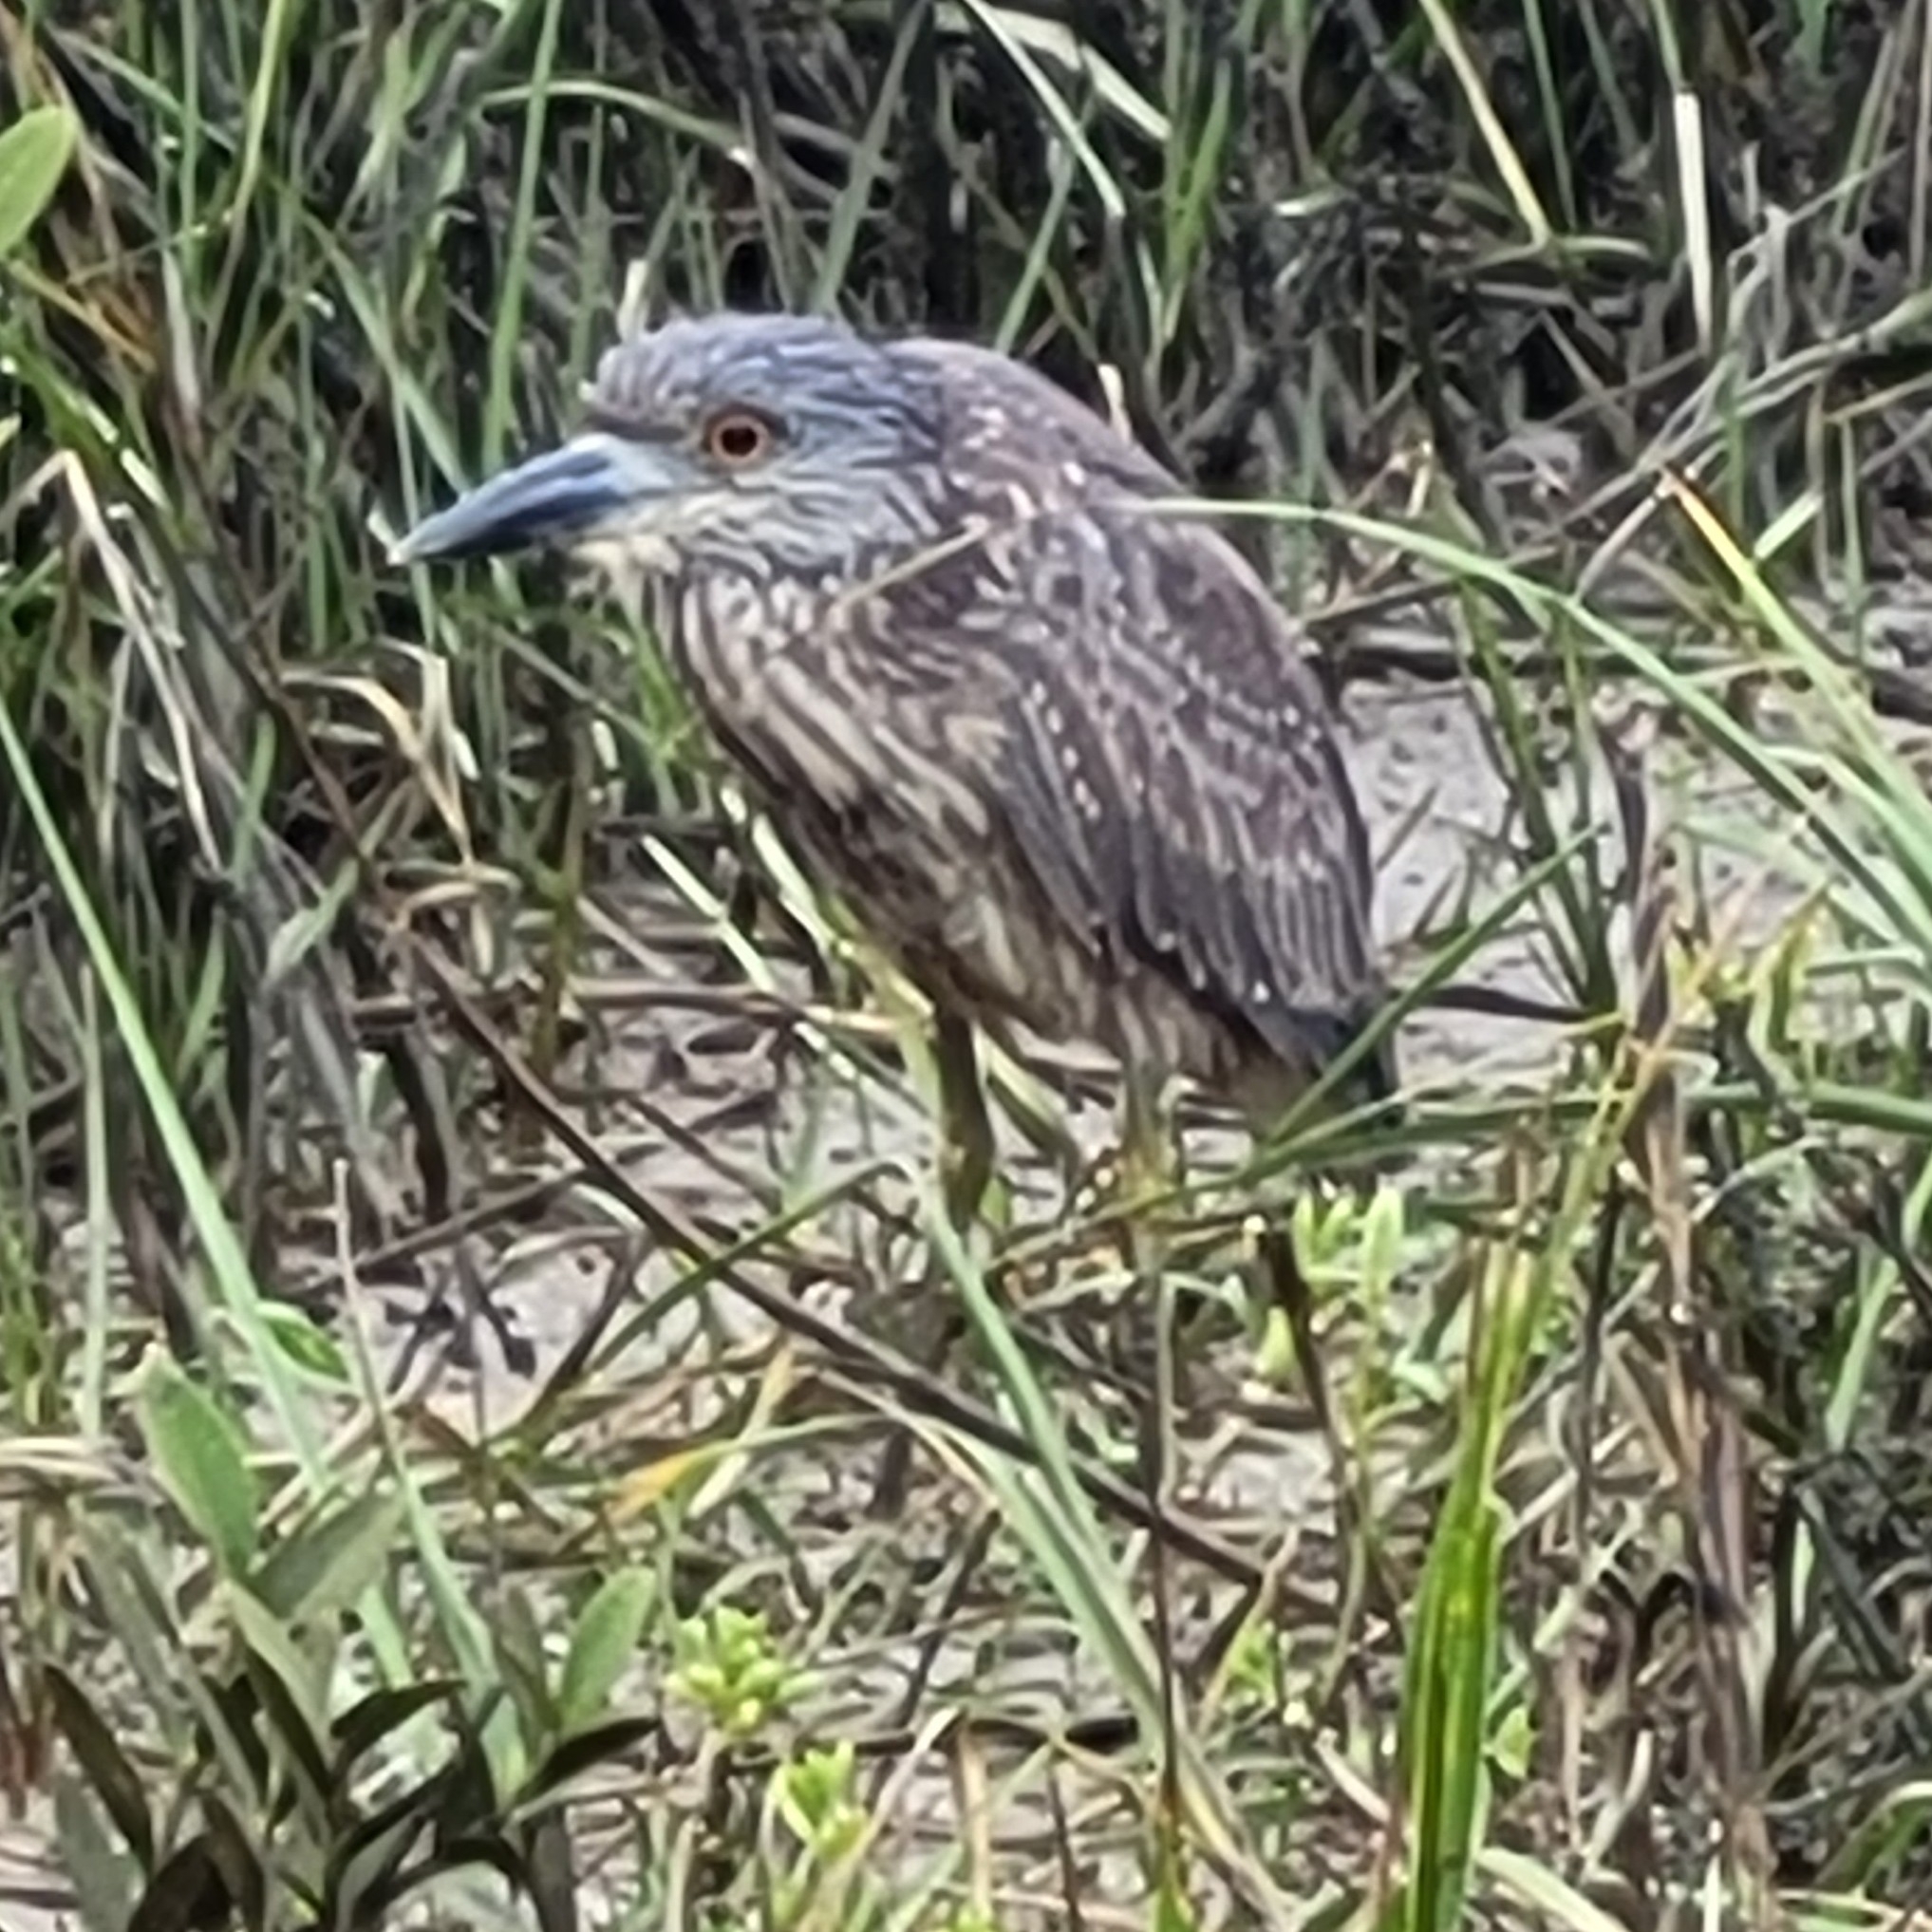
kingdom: Animalia
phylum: Chordata
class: Aves
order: Pelecaniformes
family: Ardeidae
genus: Nyctanassa
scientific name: Nyctanassa violacea
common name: Yellow-crowned night heron
